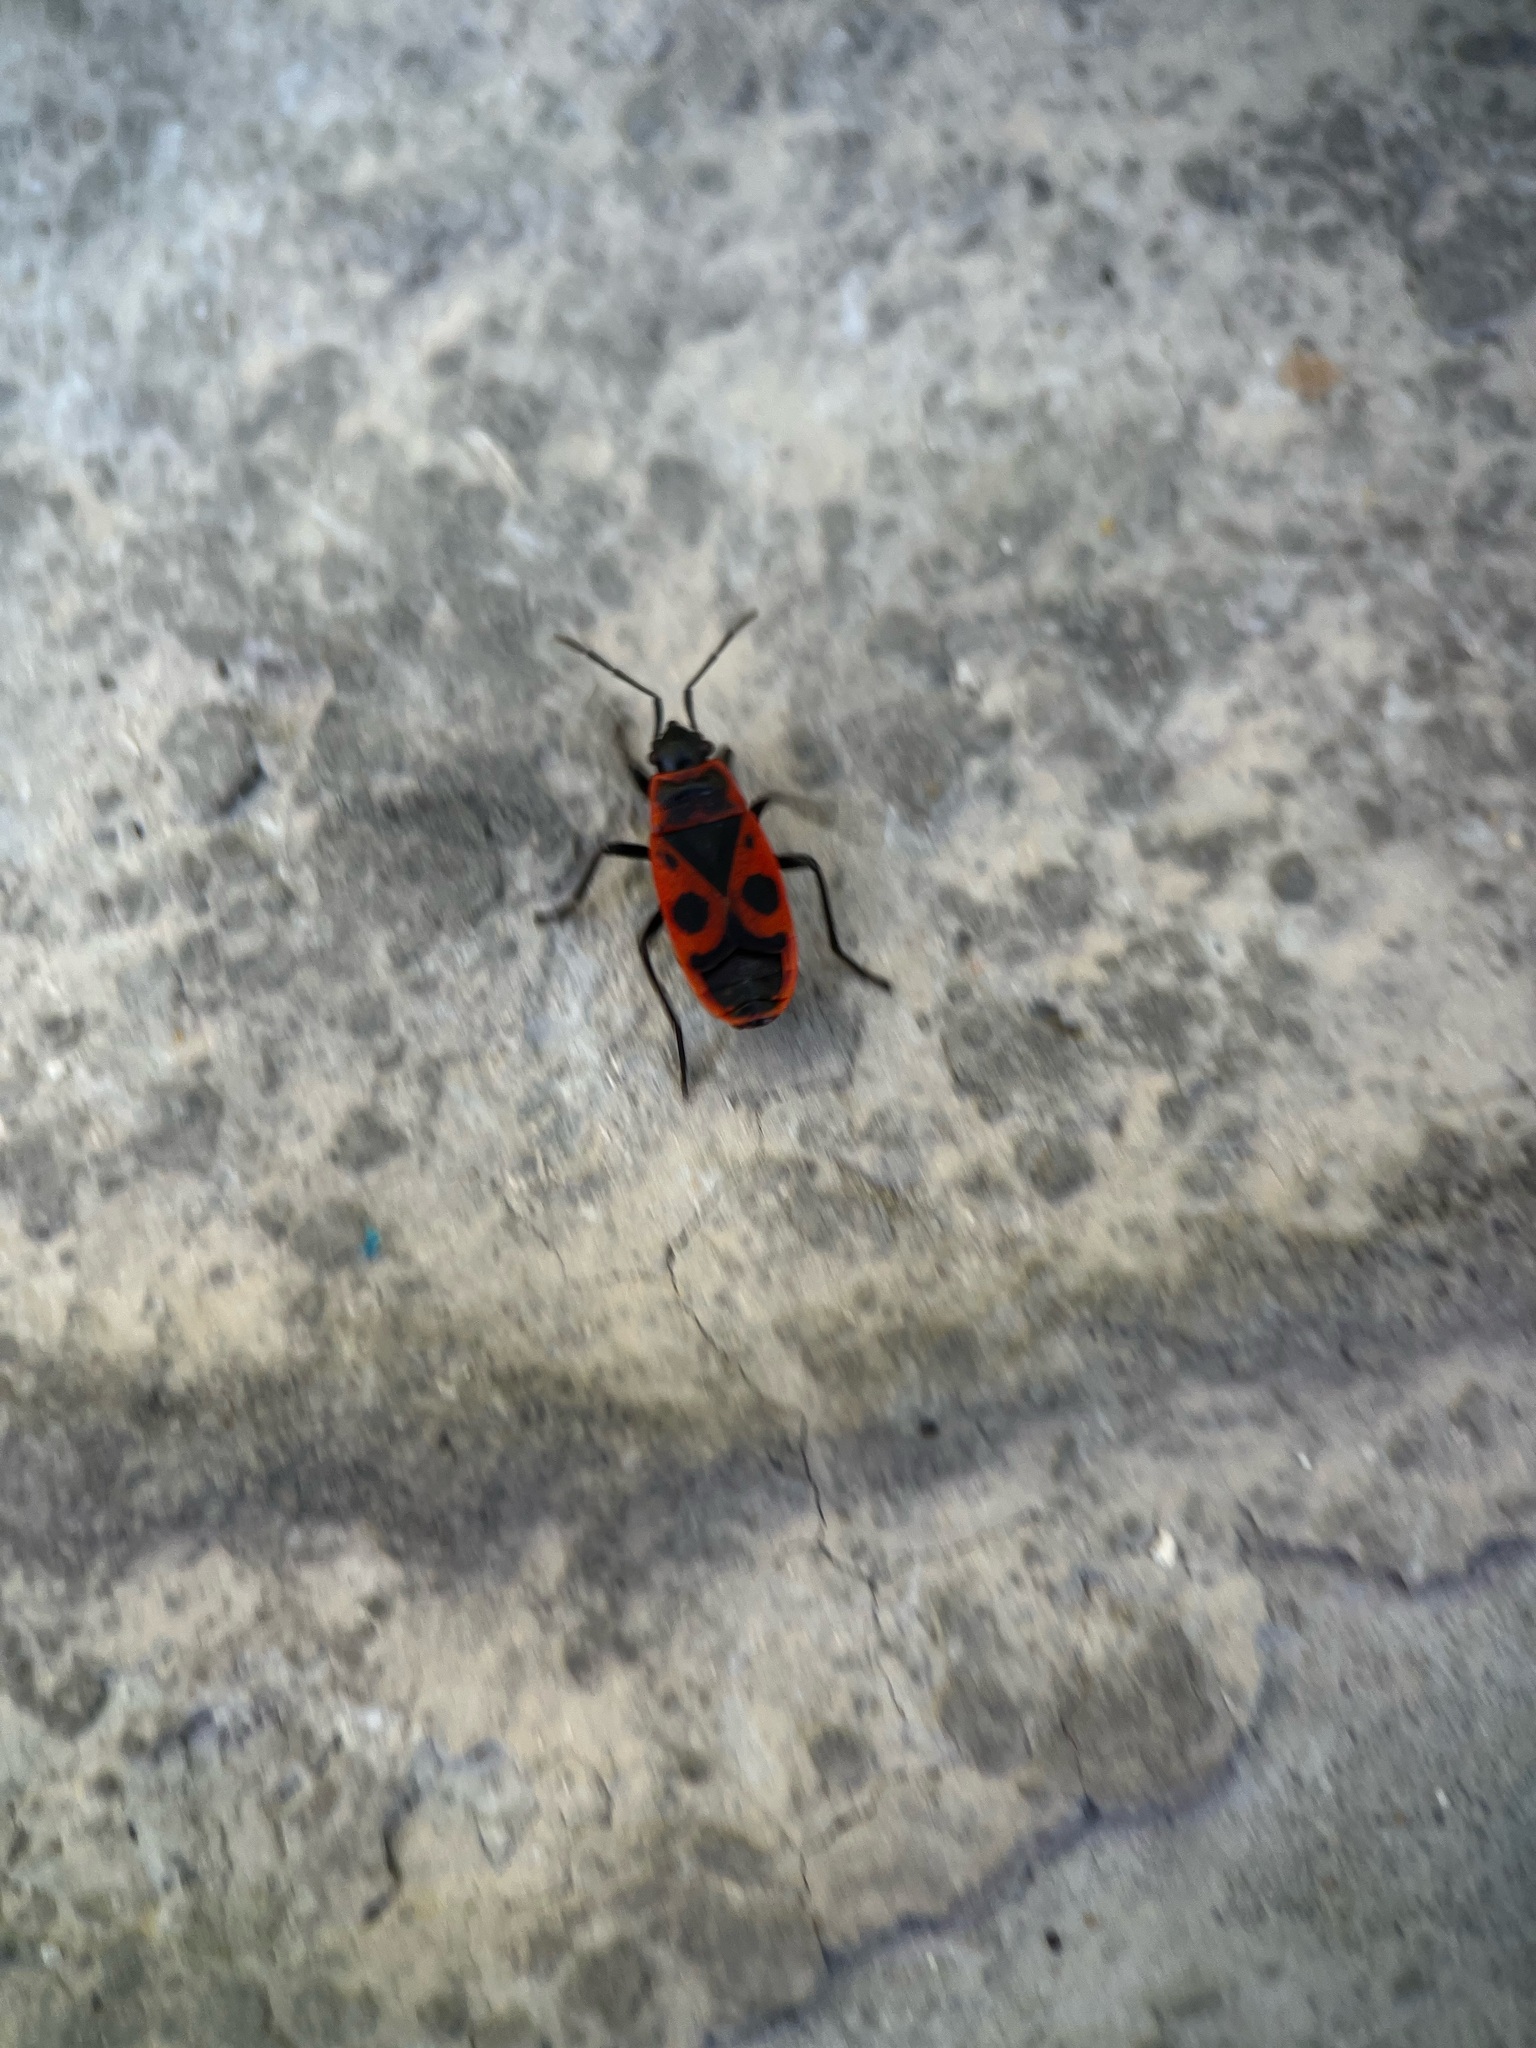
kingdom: Animalia
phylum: Arthropoda
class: Insecta
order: Hemiptera
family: Pyrrhocoridae
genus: Pyrrhocoris
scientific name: Pyrrhocoris apterus
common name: Firebug
